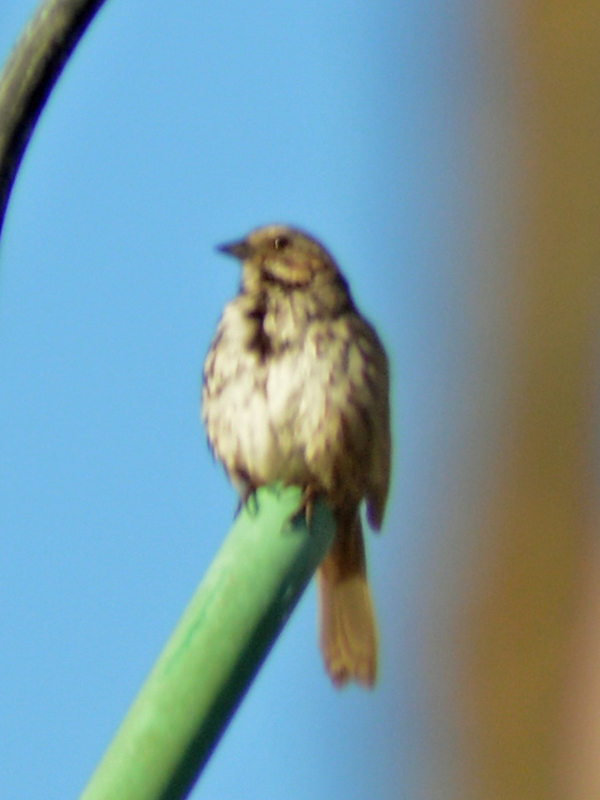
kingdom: Animalia
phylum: Chordata
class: Aves
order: Passeriformes
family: Passerellidae
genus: Melospiza
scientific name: Melospiza melodia
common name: Song sparrow
